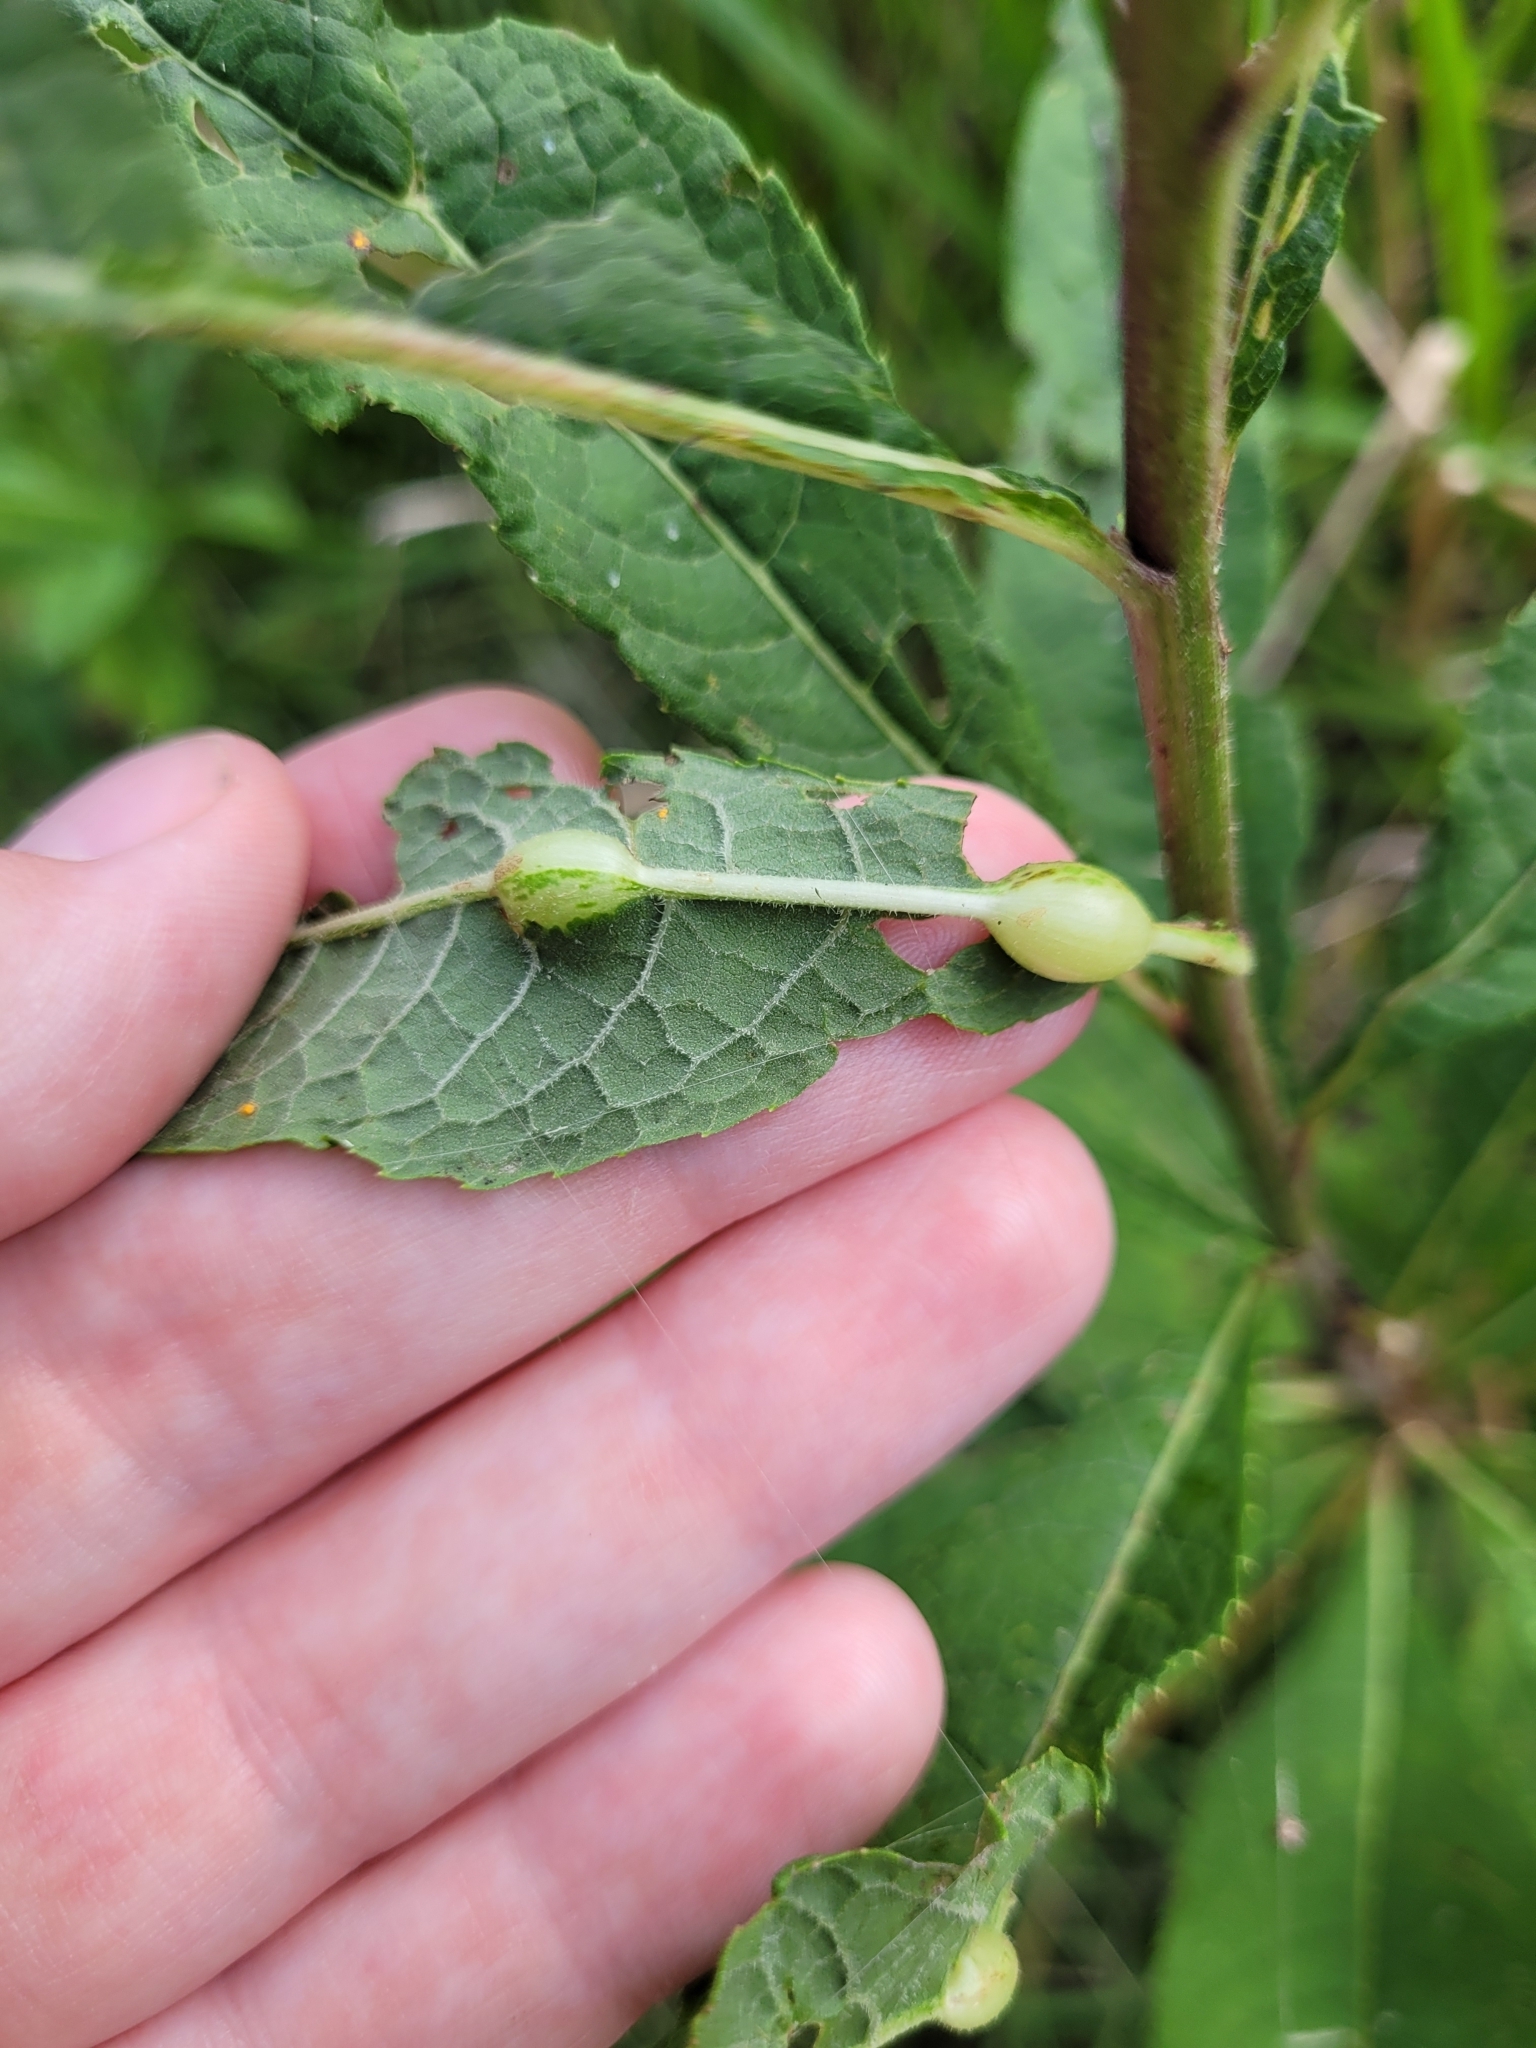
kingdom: Animalia
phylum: Arthropoda
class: Insecta
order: Diptera
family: Cecidomyiidae
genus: Neolasioptera
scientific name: Neolasioptera vernoniae
